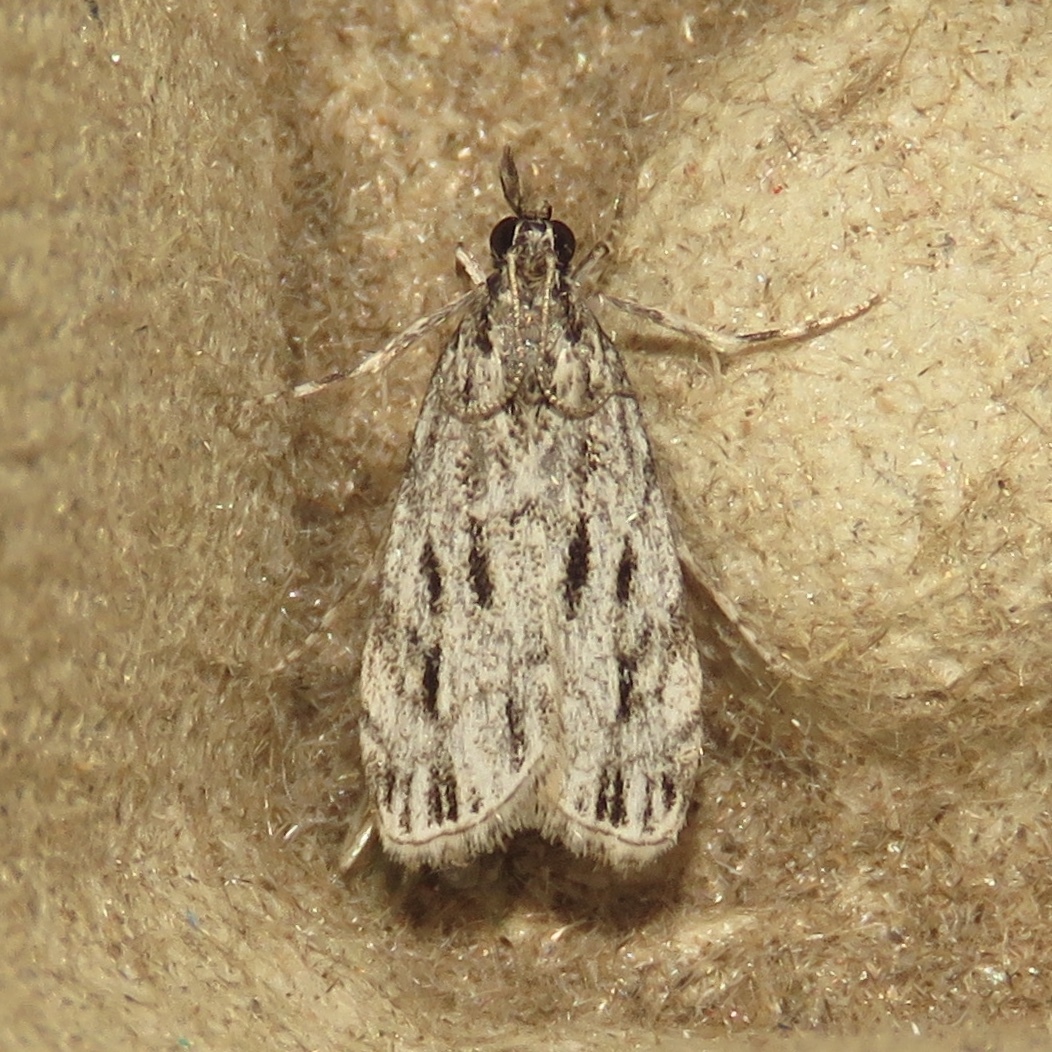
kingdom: Animalia
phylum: Arthropoda
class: Insecta
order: Lepidoptera
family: Crambidae
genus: Eudonia
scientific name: Eudonia strigalis
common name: Striped eudonia moth
